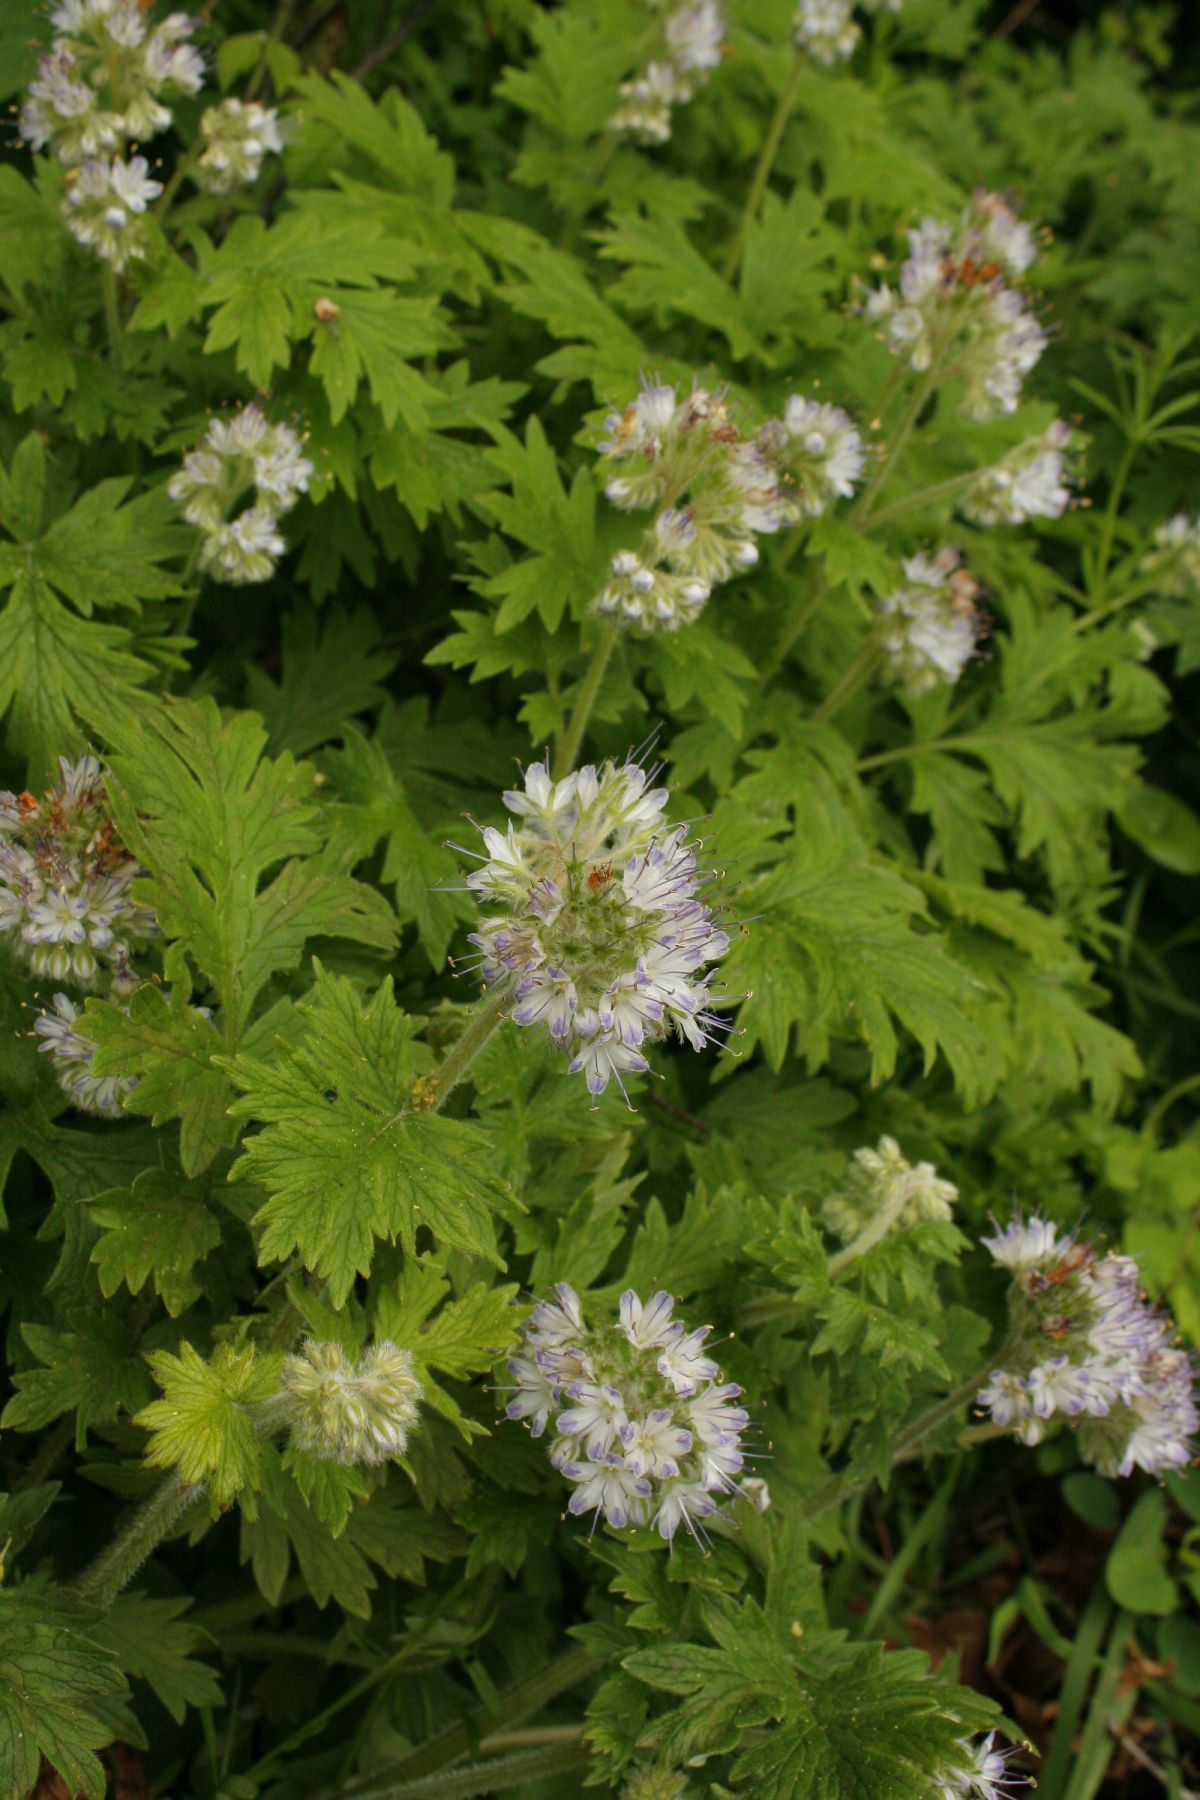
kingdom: Plantae
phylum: Tracheophyta
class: Magnoliopsida
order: Boraginales
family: Hydrophyllaceae
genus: Hydrophyllum
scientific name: Hydrophyllum occidentale
